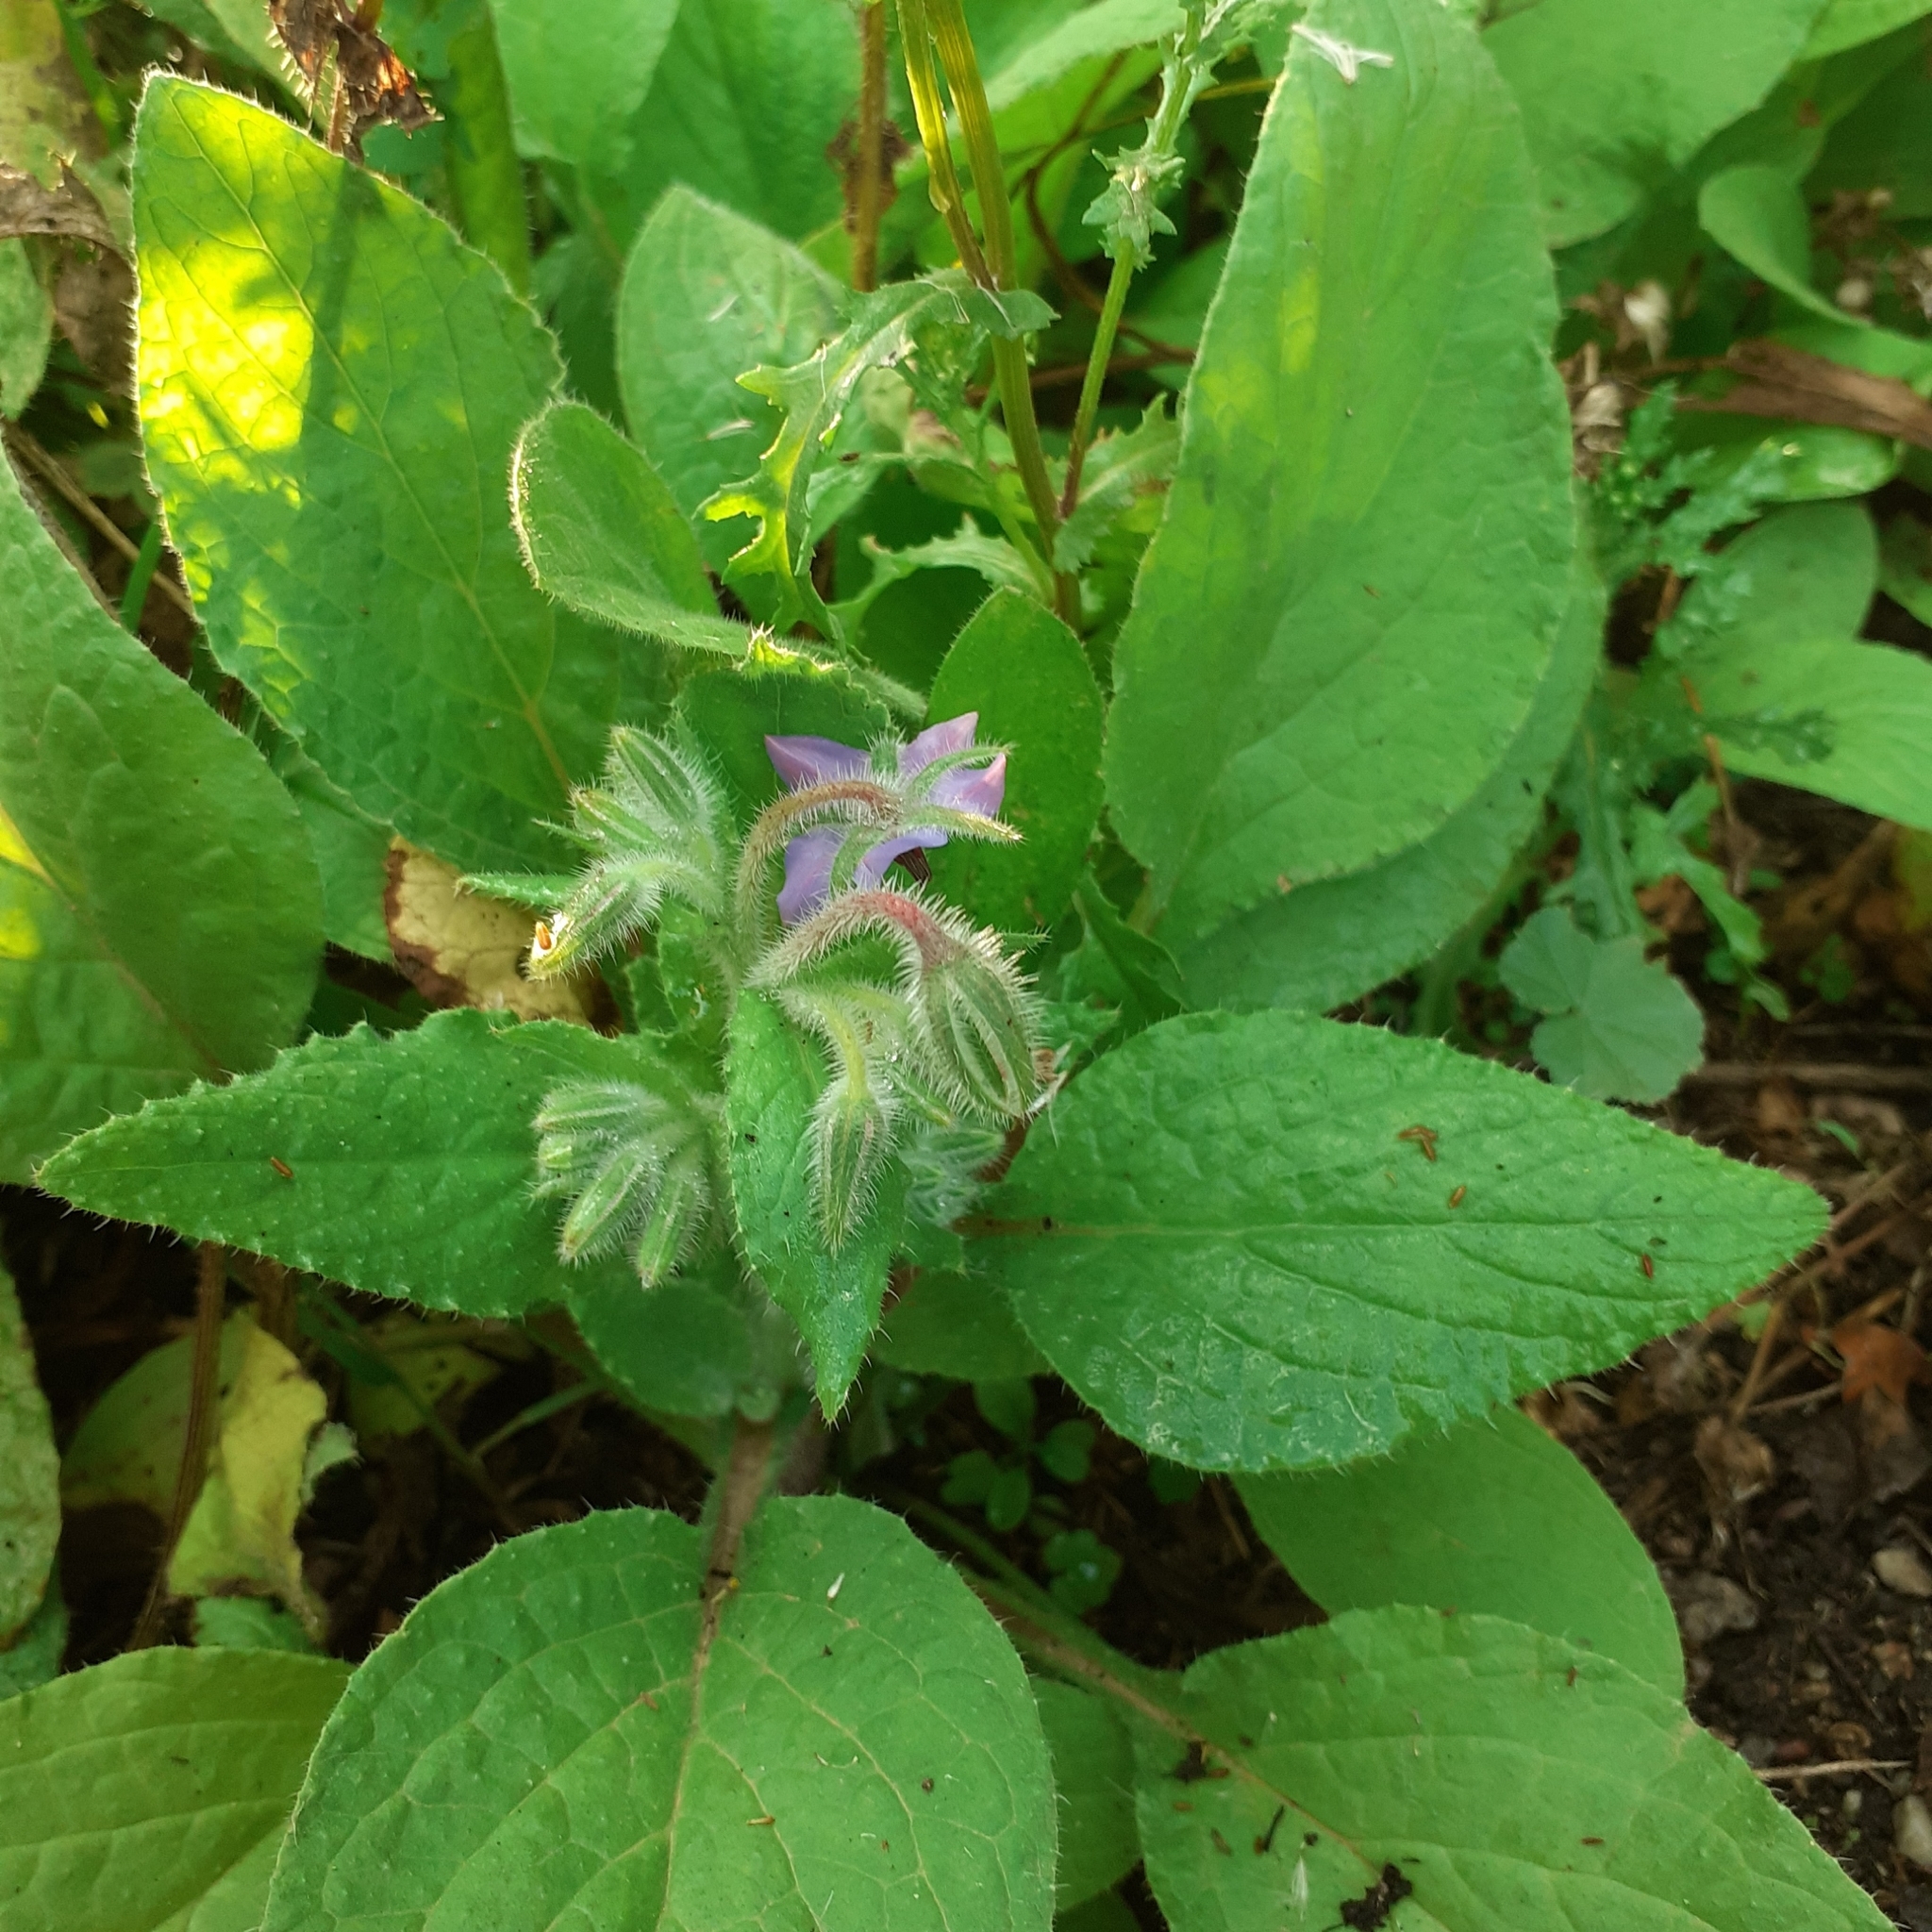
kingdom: Plantae
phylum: Tracheophyta
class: Magnoliopsida
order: Boraginales
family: Boraginaceae
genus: Borago
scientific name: Borago officinalis
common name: Borage
